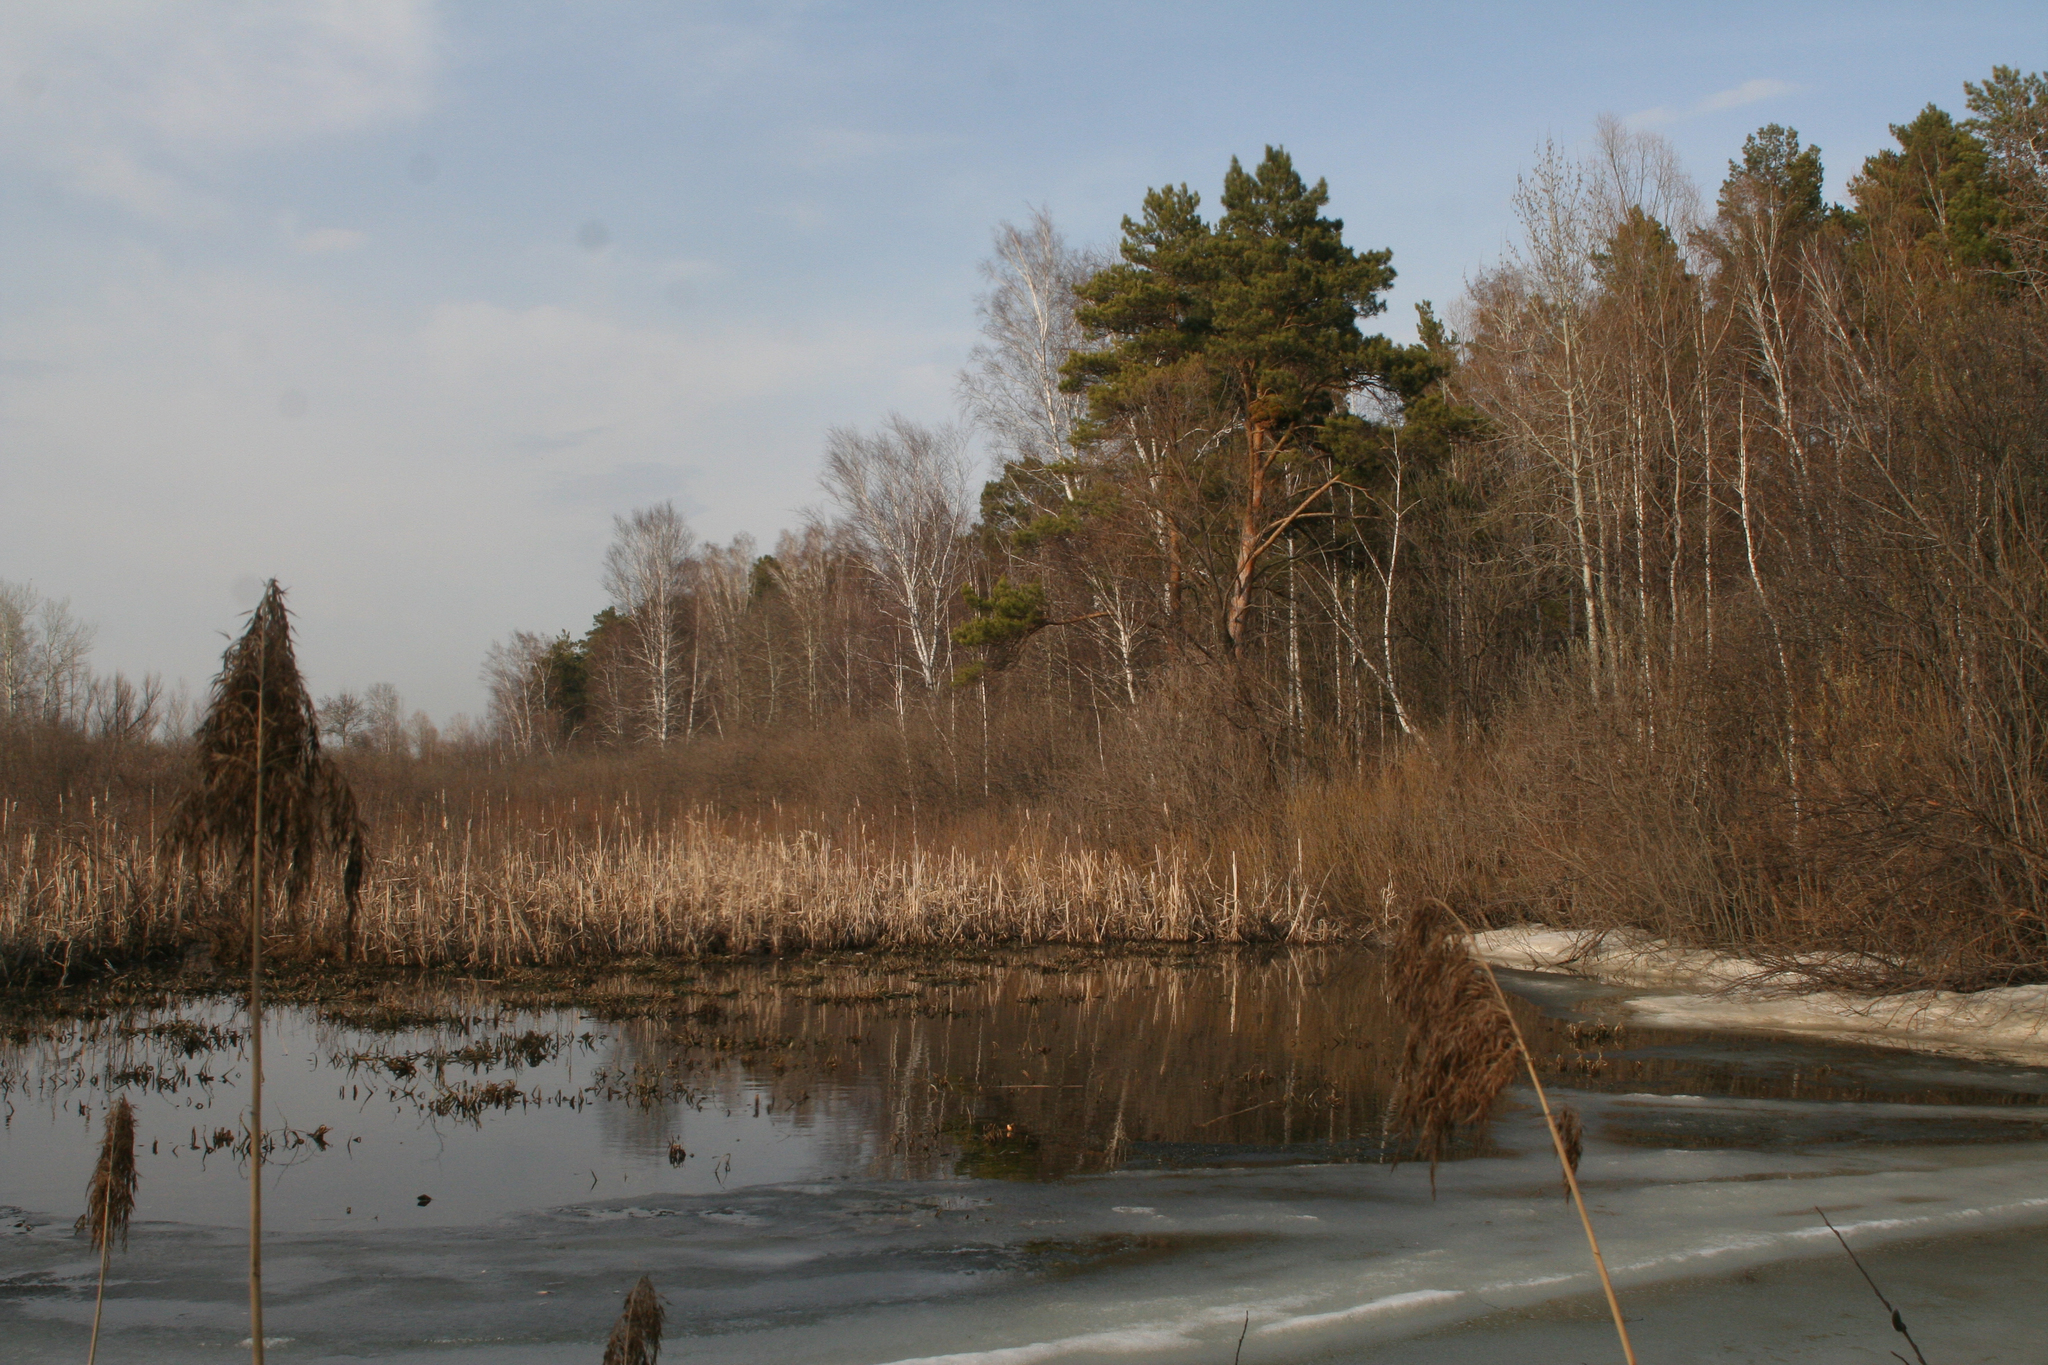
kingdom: Plantae
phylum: Tracheophyta
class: Pinopsida
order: Pinales
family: Pinaceae
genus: Pinus
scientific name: Pinus sylvestris
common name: Scots pine
